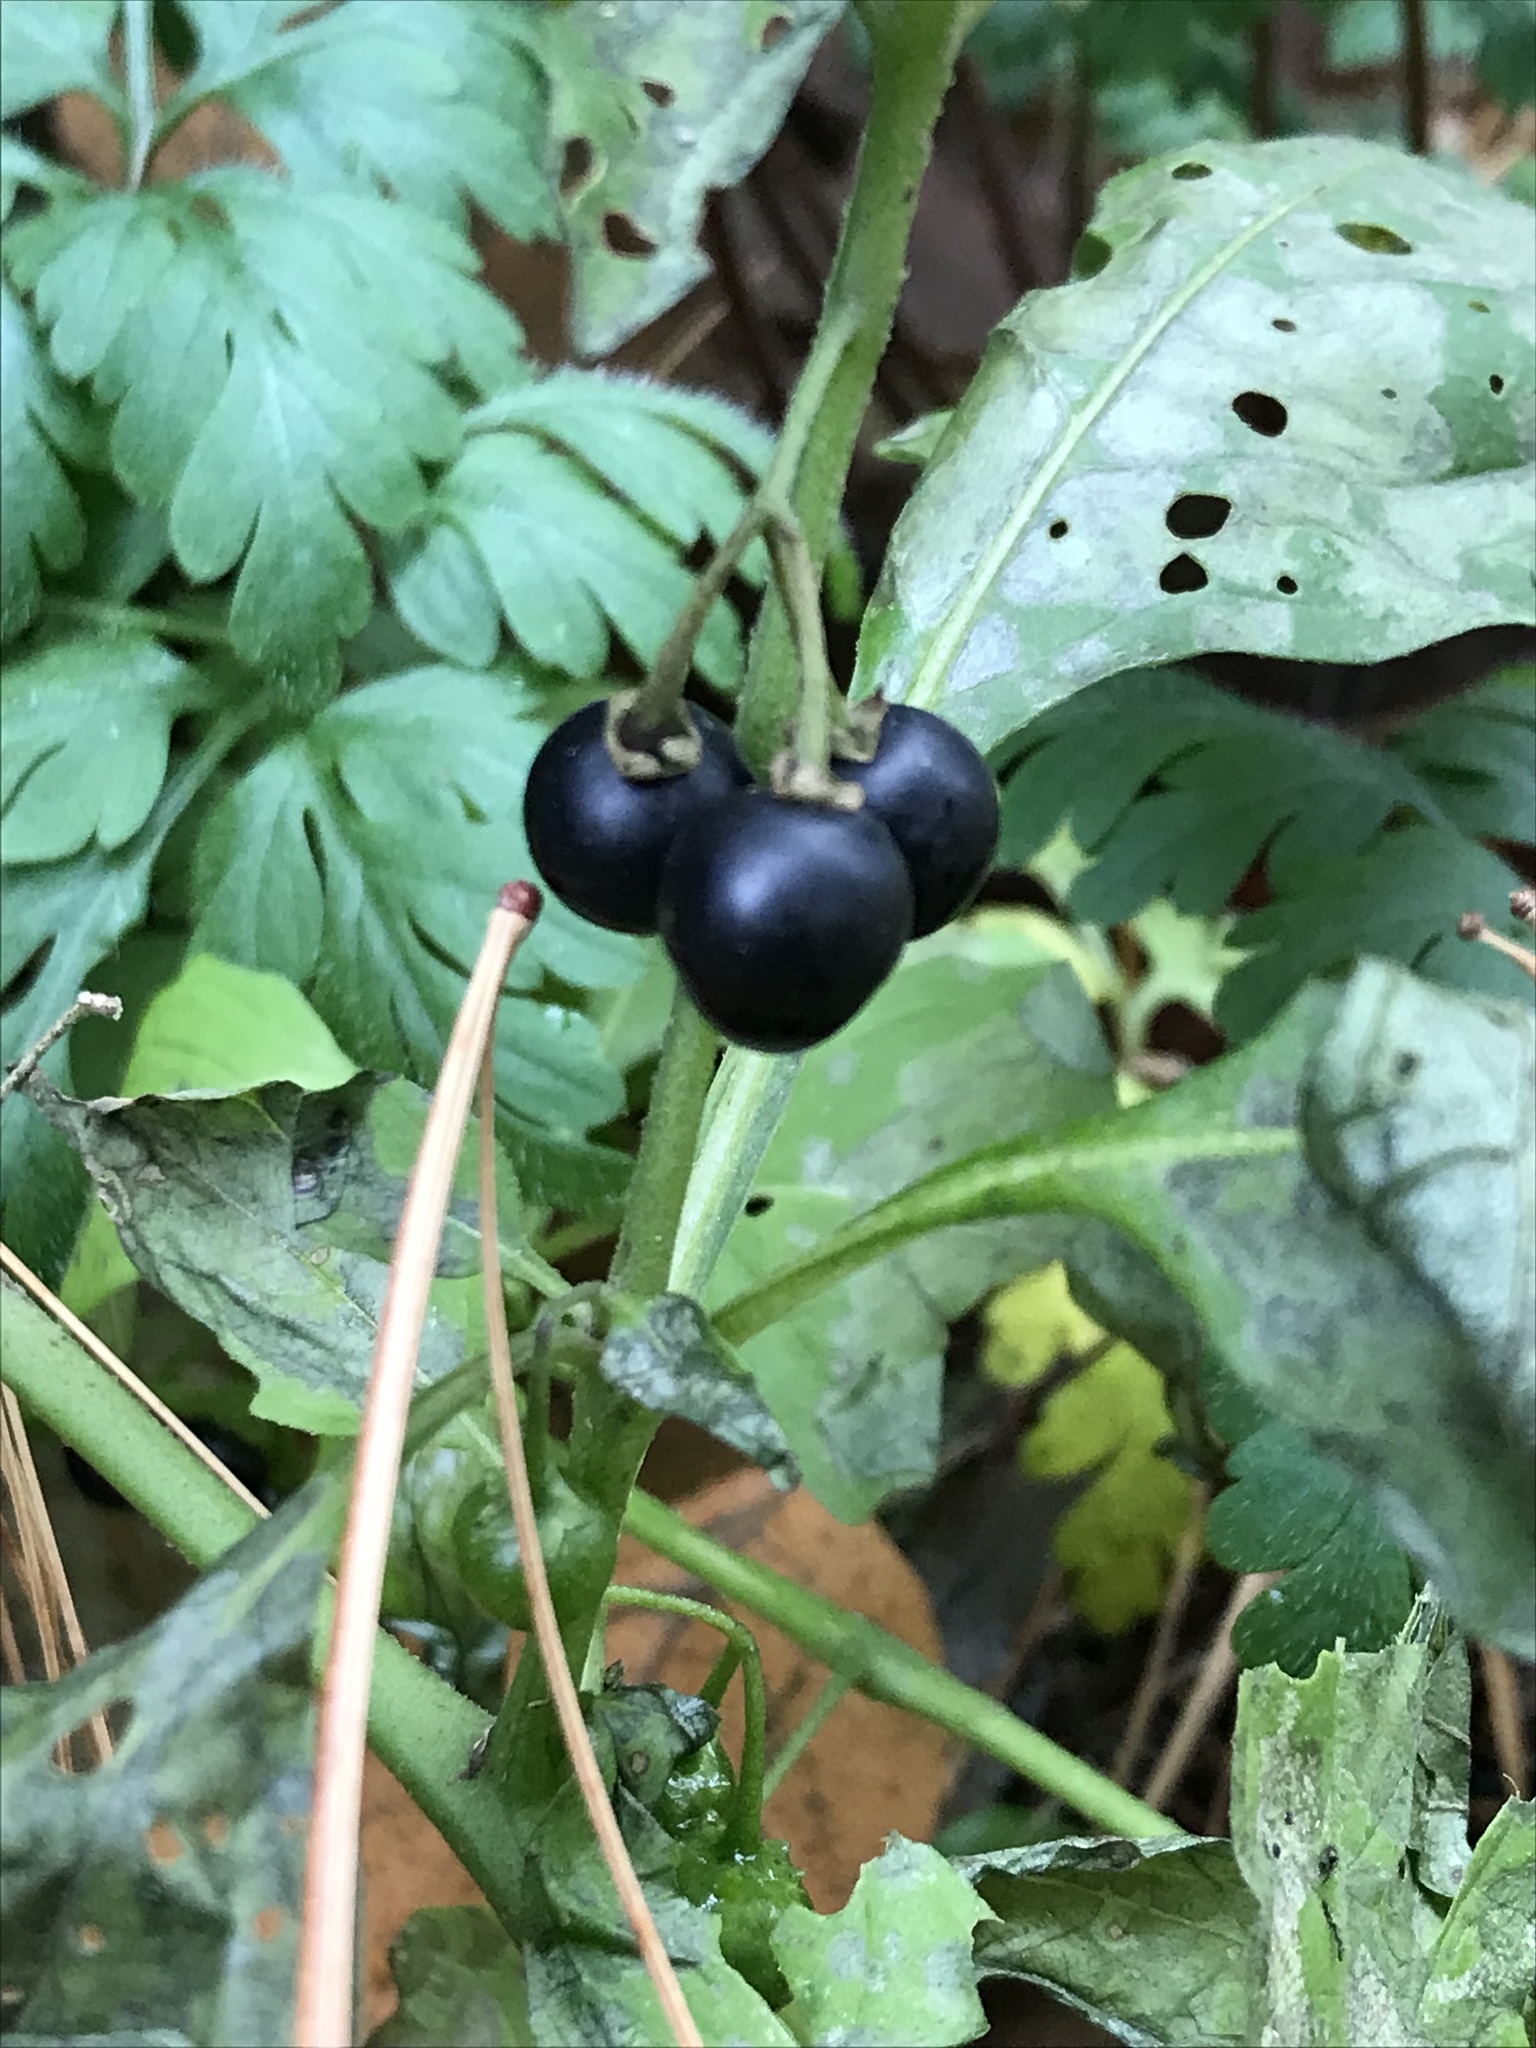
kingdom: Plantae
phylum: Tracheophyta
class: Magnoliopsida
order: Solanales
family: Solanaceae
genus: Solanum
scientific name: Solanum emulans
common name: Eastern black nightshade
